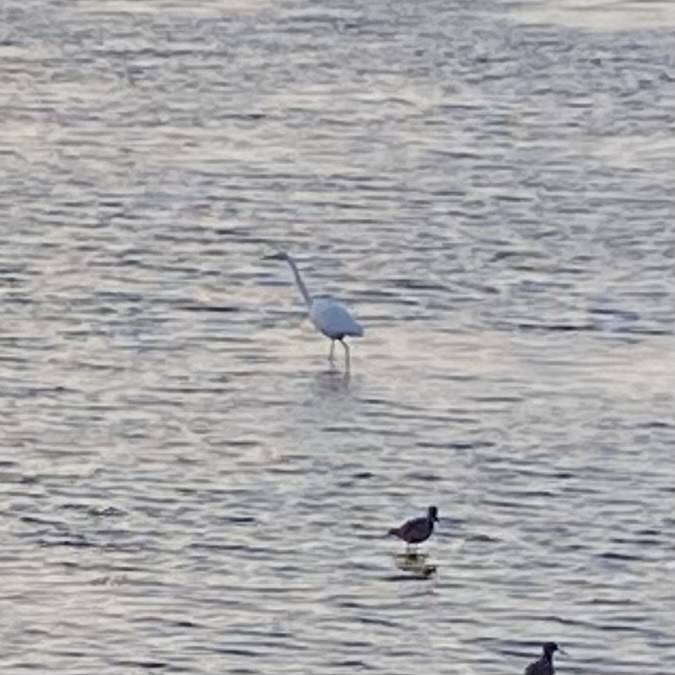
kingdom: Animalia
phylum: Chordata
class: Aves
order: Pelecaniformes
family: Ardeidae
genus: Ardea
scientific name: Ardea alba
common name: Great egret
